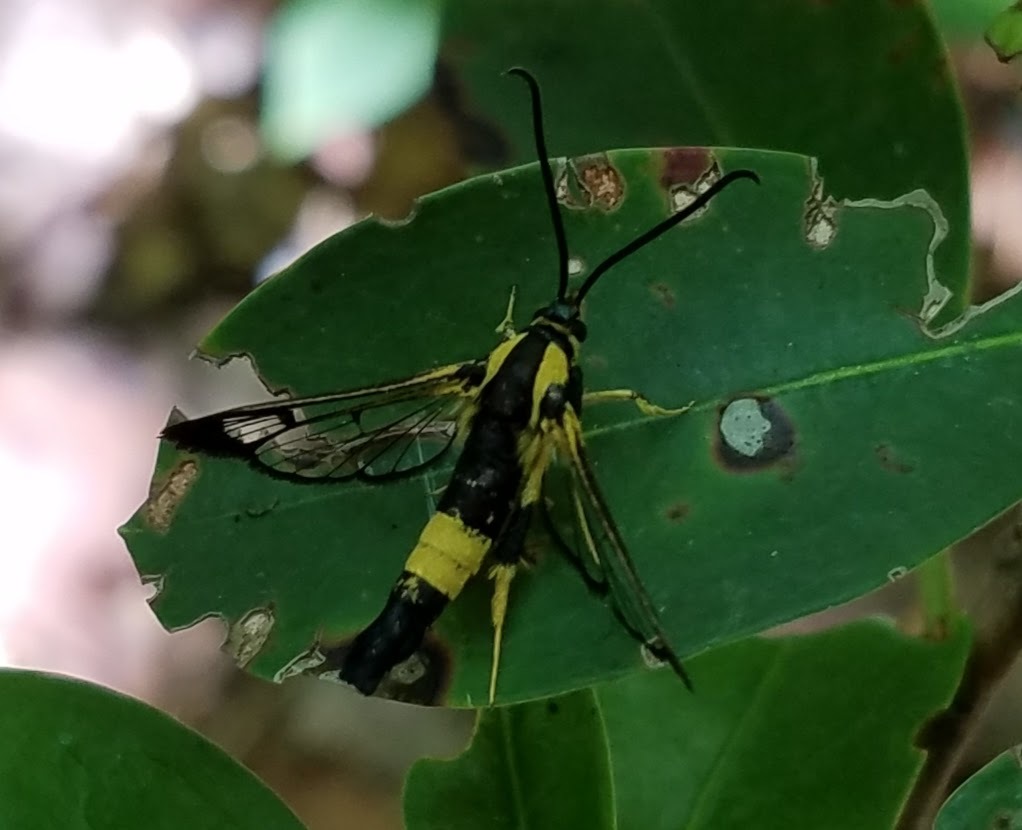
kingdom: Animalia
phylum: Arthropoda
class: Insecta
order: Lepidoptera
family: Sesiidae
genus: Synanthedon
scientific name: Synanthedon kathyae
